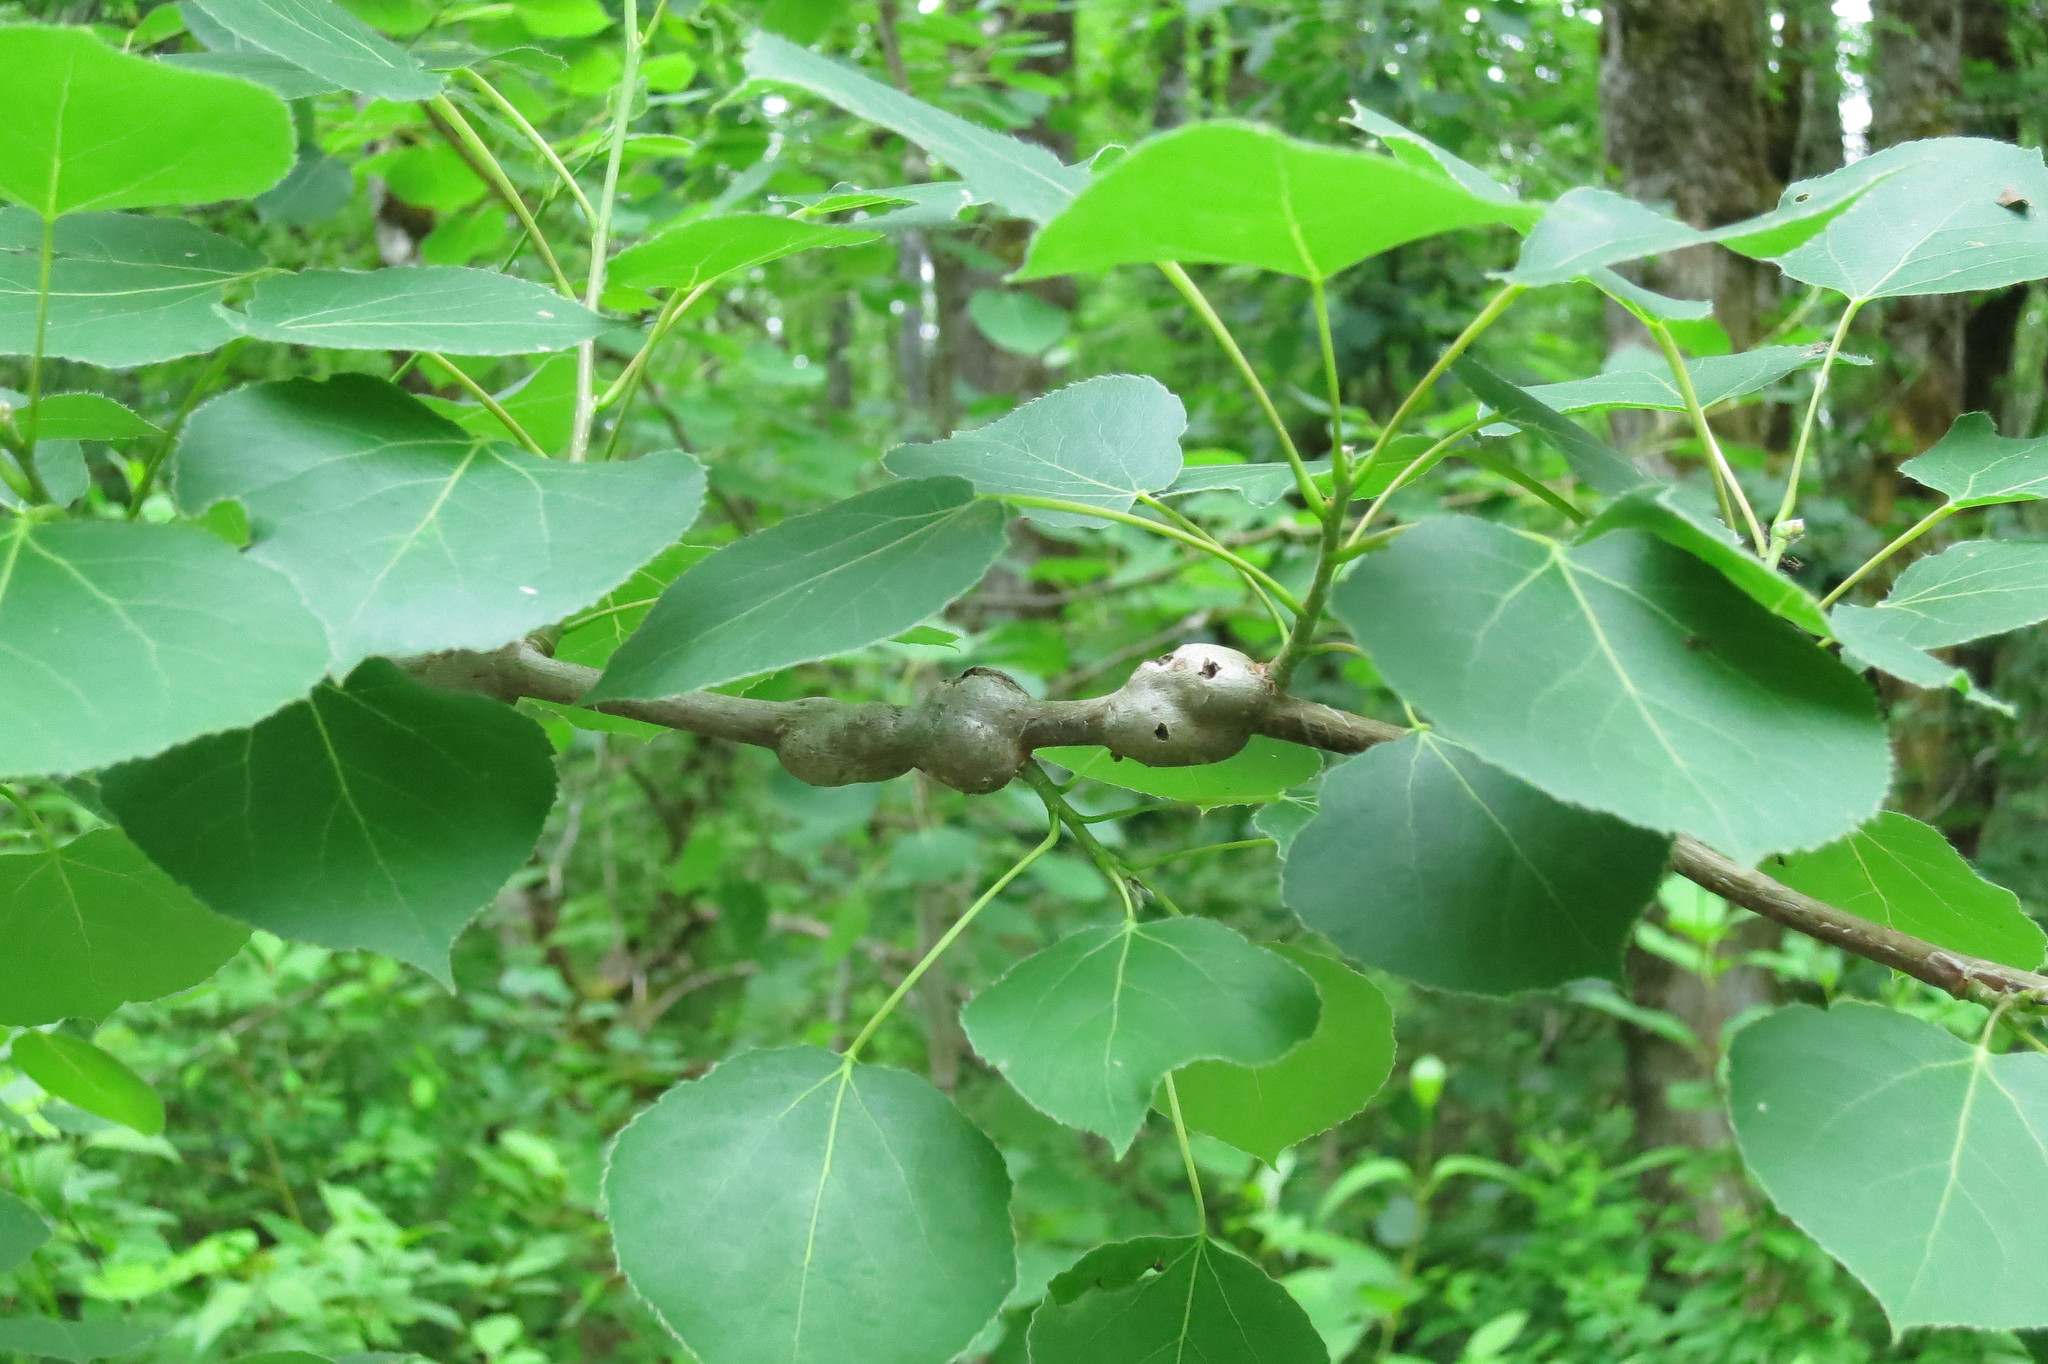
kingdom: Animalia
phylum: Arthropoda
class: Insecta
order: Diptera
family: Agromyzidae
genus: Euhexomyza
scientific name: Euhexomyza schineri
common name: Poplar twiggall fly
